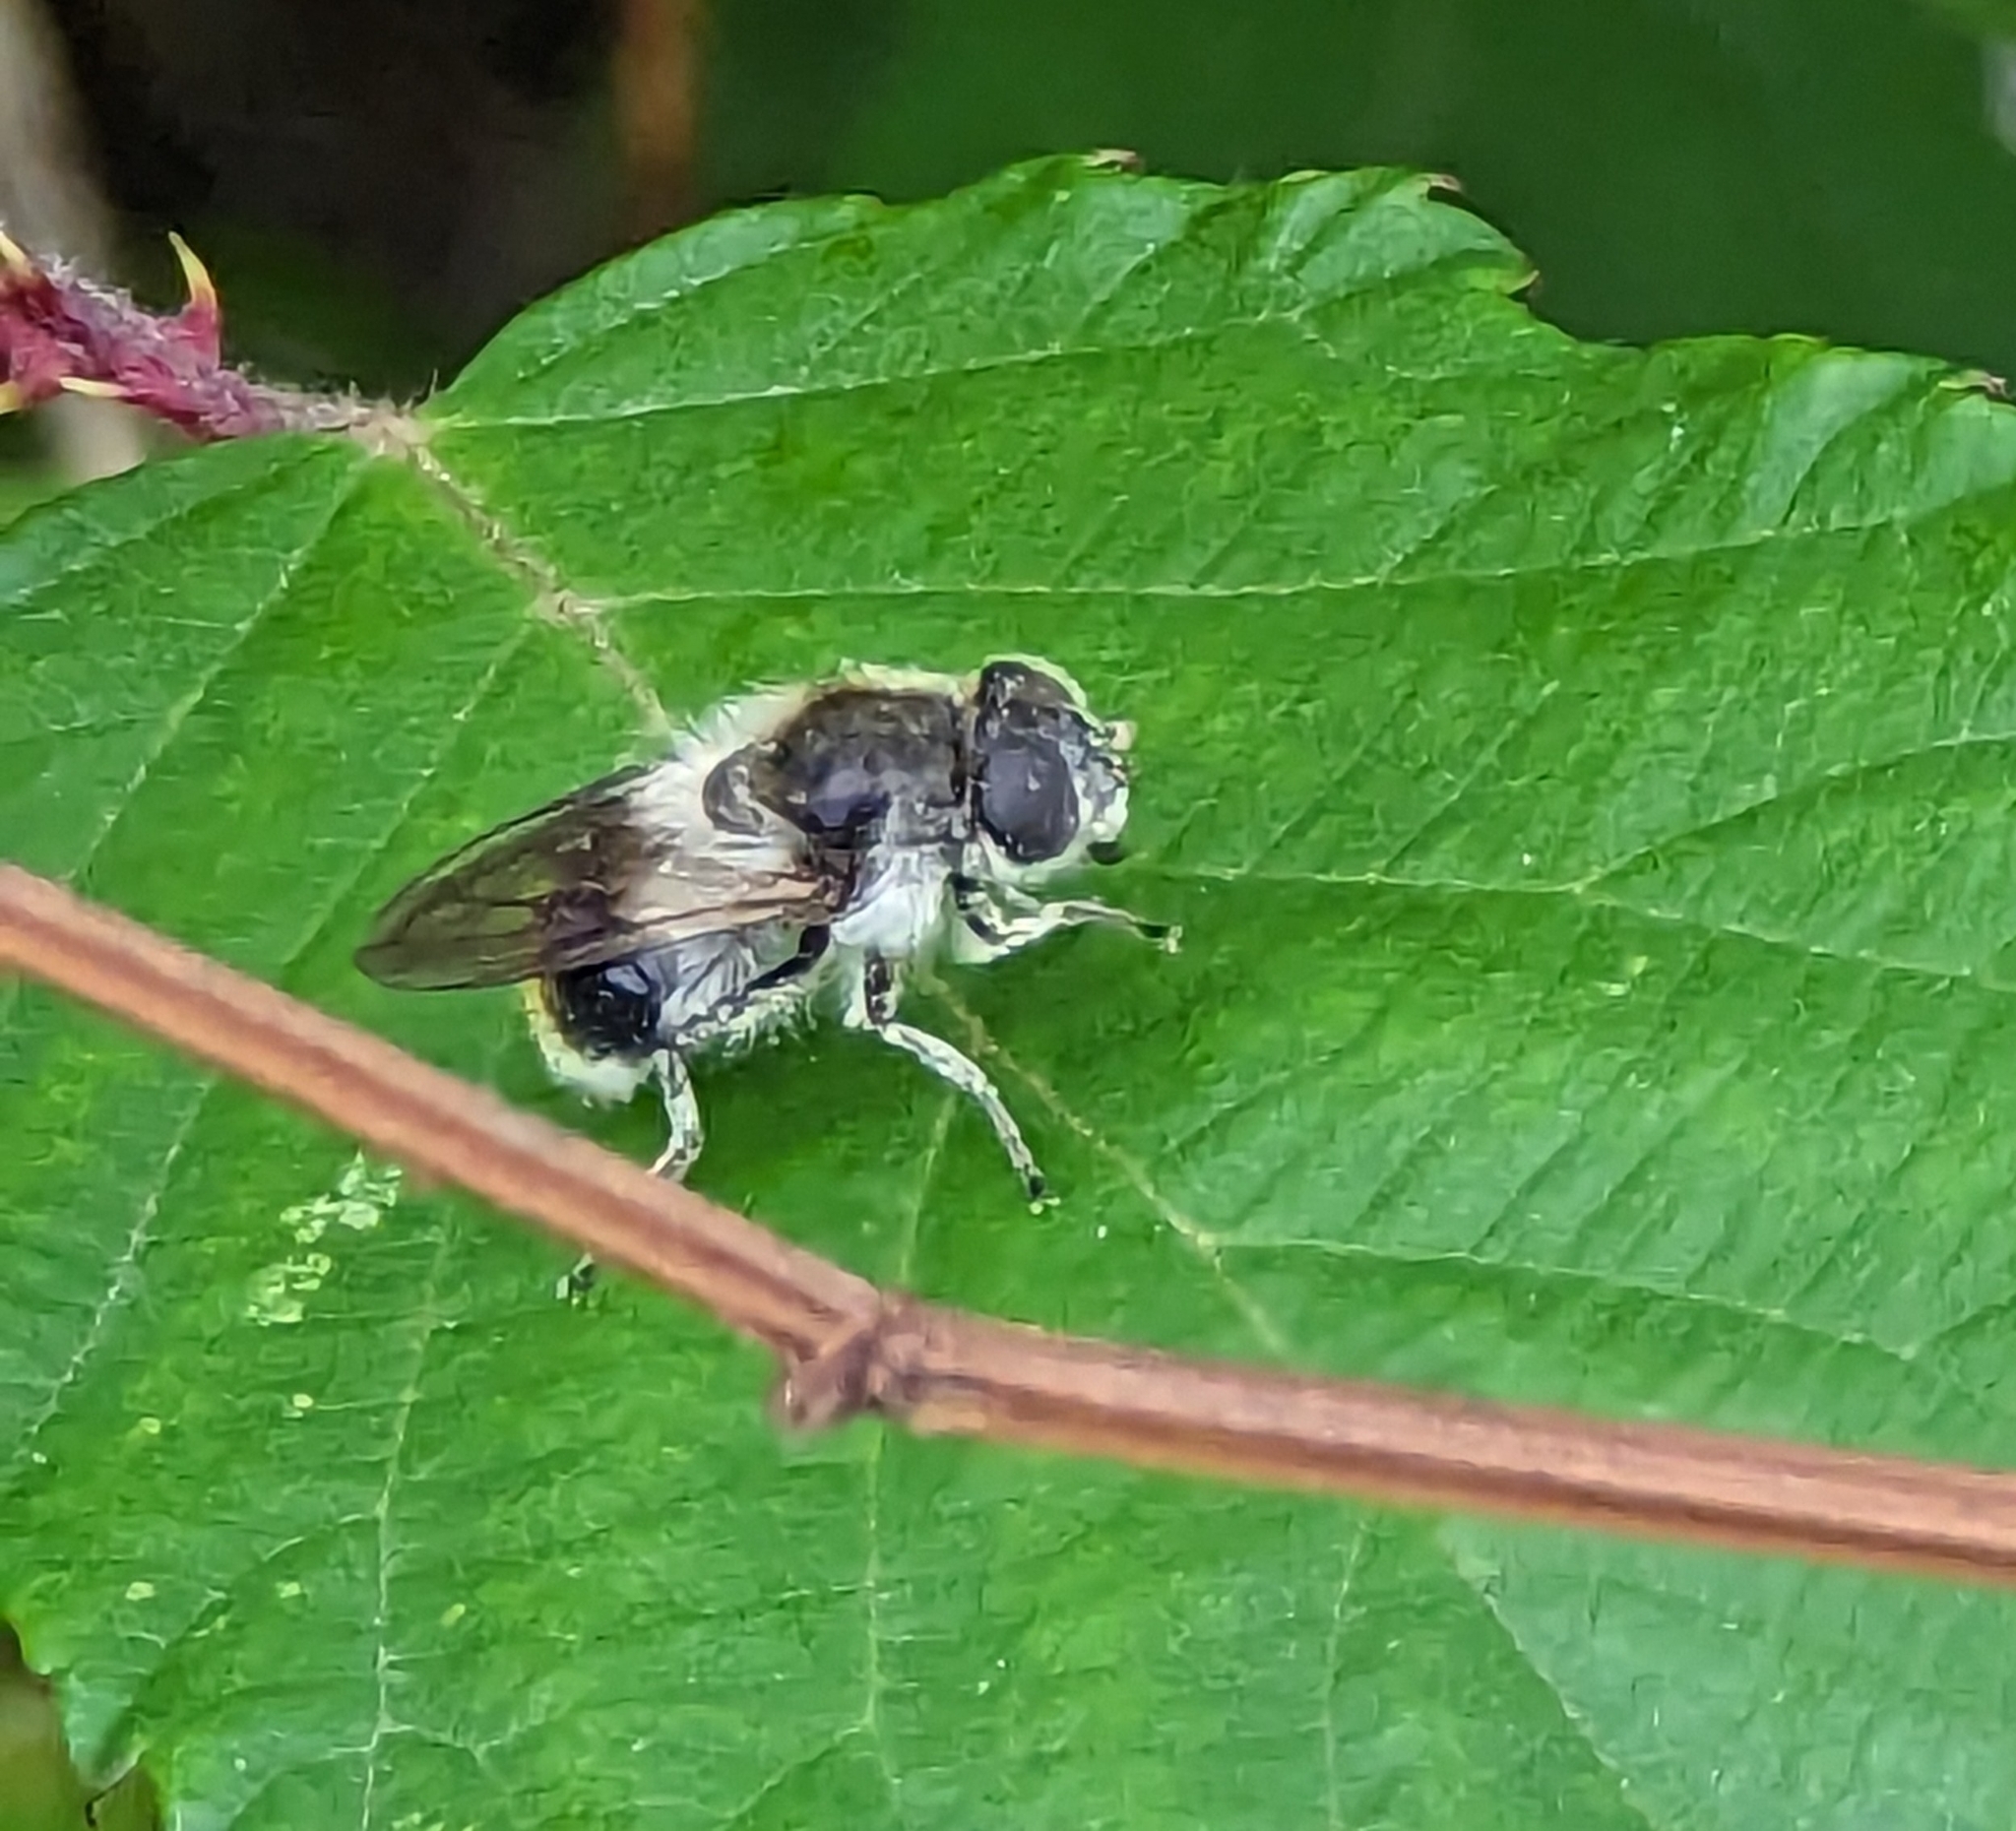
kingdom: Animalia
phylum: Arthropoda
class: Insecta
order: Diptera
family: Syrphidae
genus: Cheilosia
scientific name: Cheilosia illustrata
